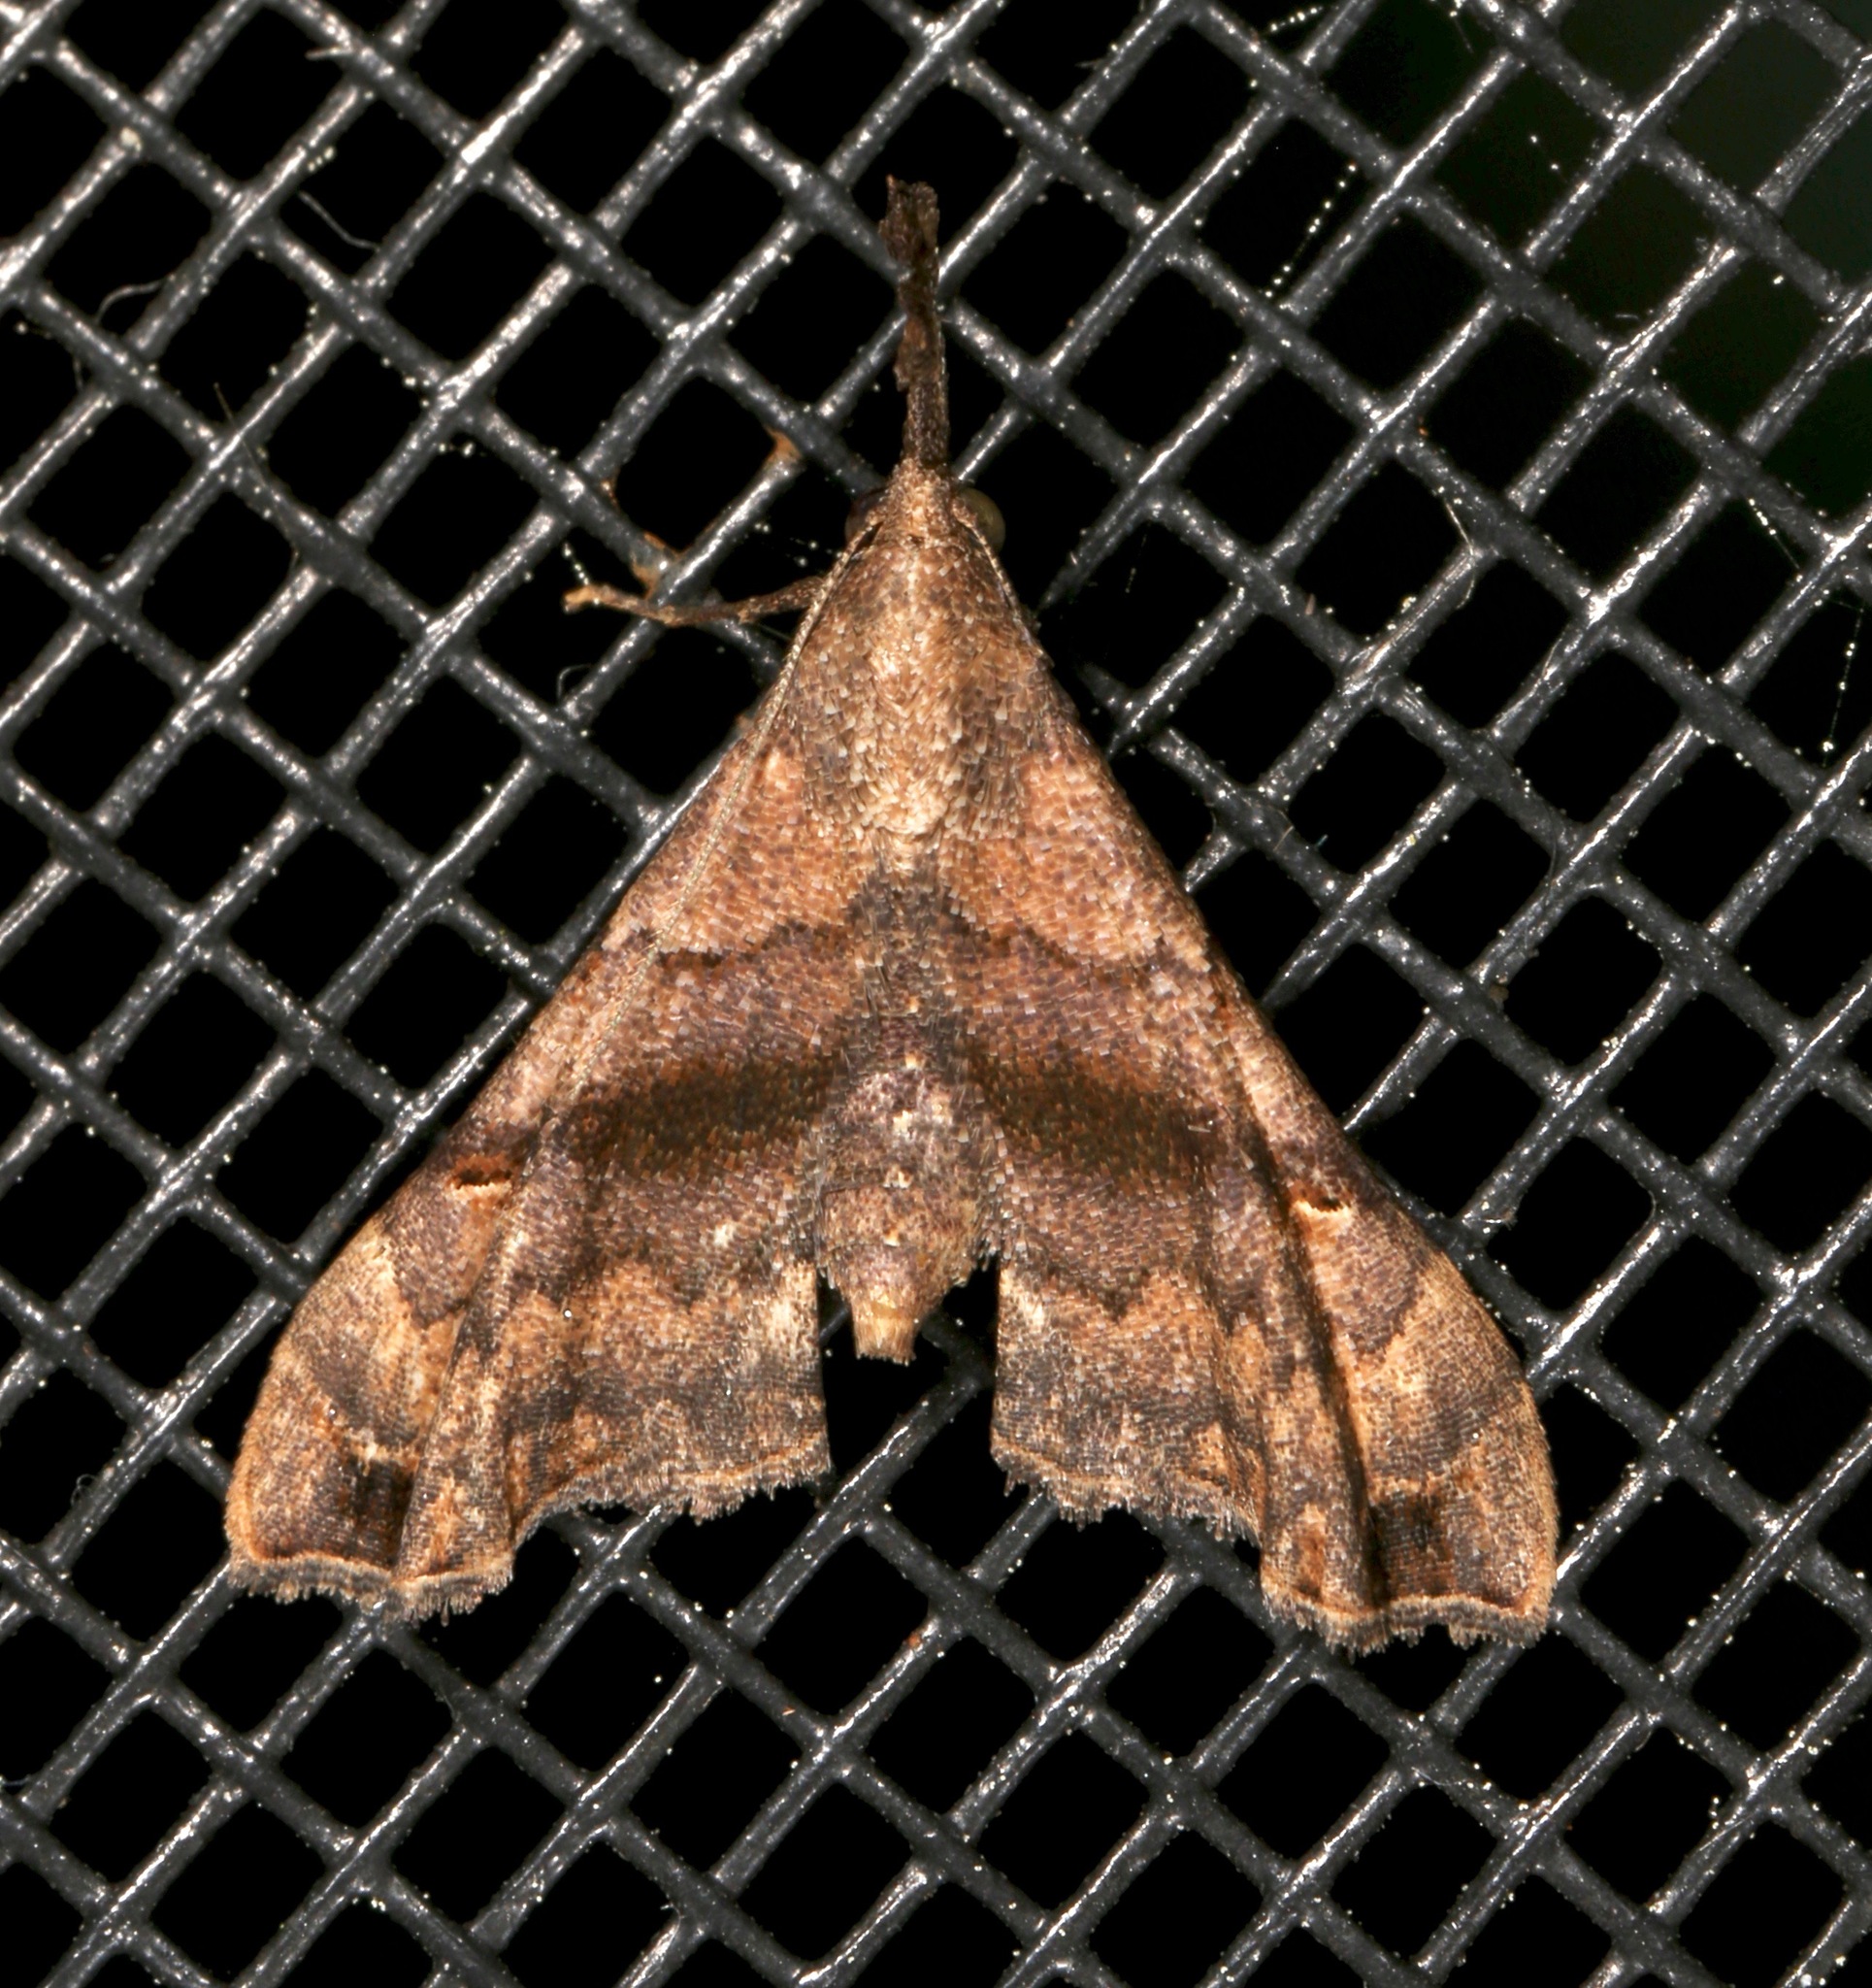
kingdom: Animalia
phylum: Arthropoda
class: Insecta
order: Lepidoptera
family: Erebidae
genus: Palthis
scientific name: Palthis asopialis
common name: Faint-spotted palthis moth
